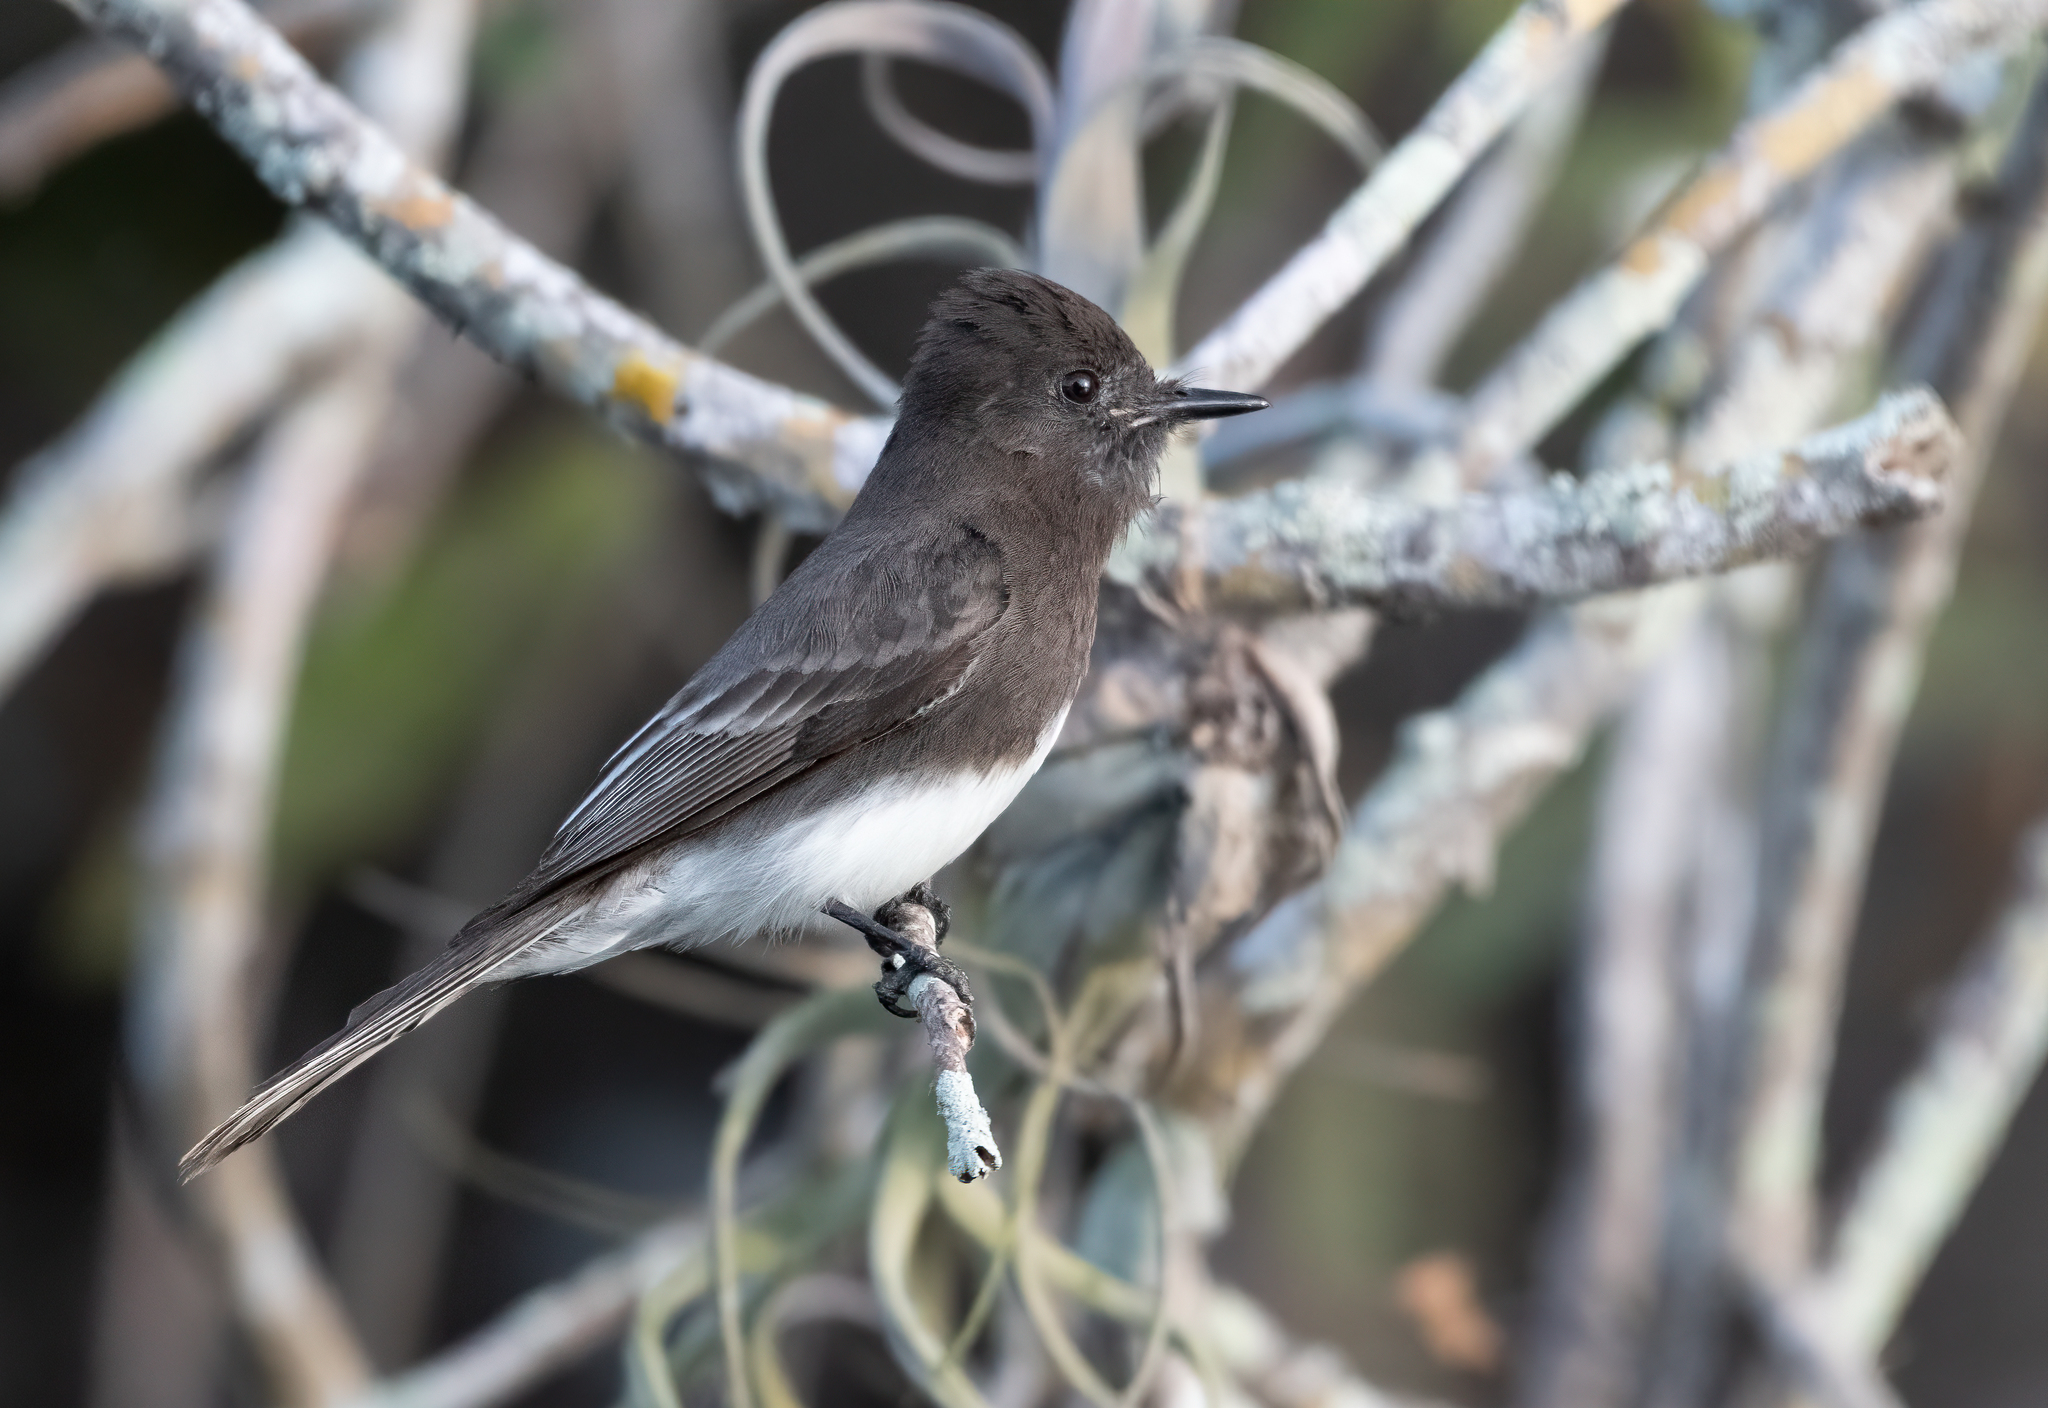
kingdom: Animalia
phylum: Chordata
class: Aves
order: Passeriformes
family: Tyrannidae
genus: Sayornis
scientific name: Sayornis nigricans
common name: Black phoebe
